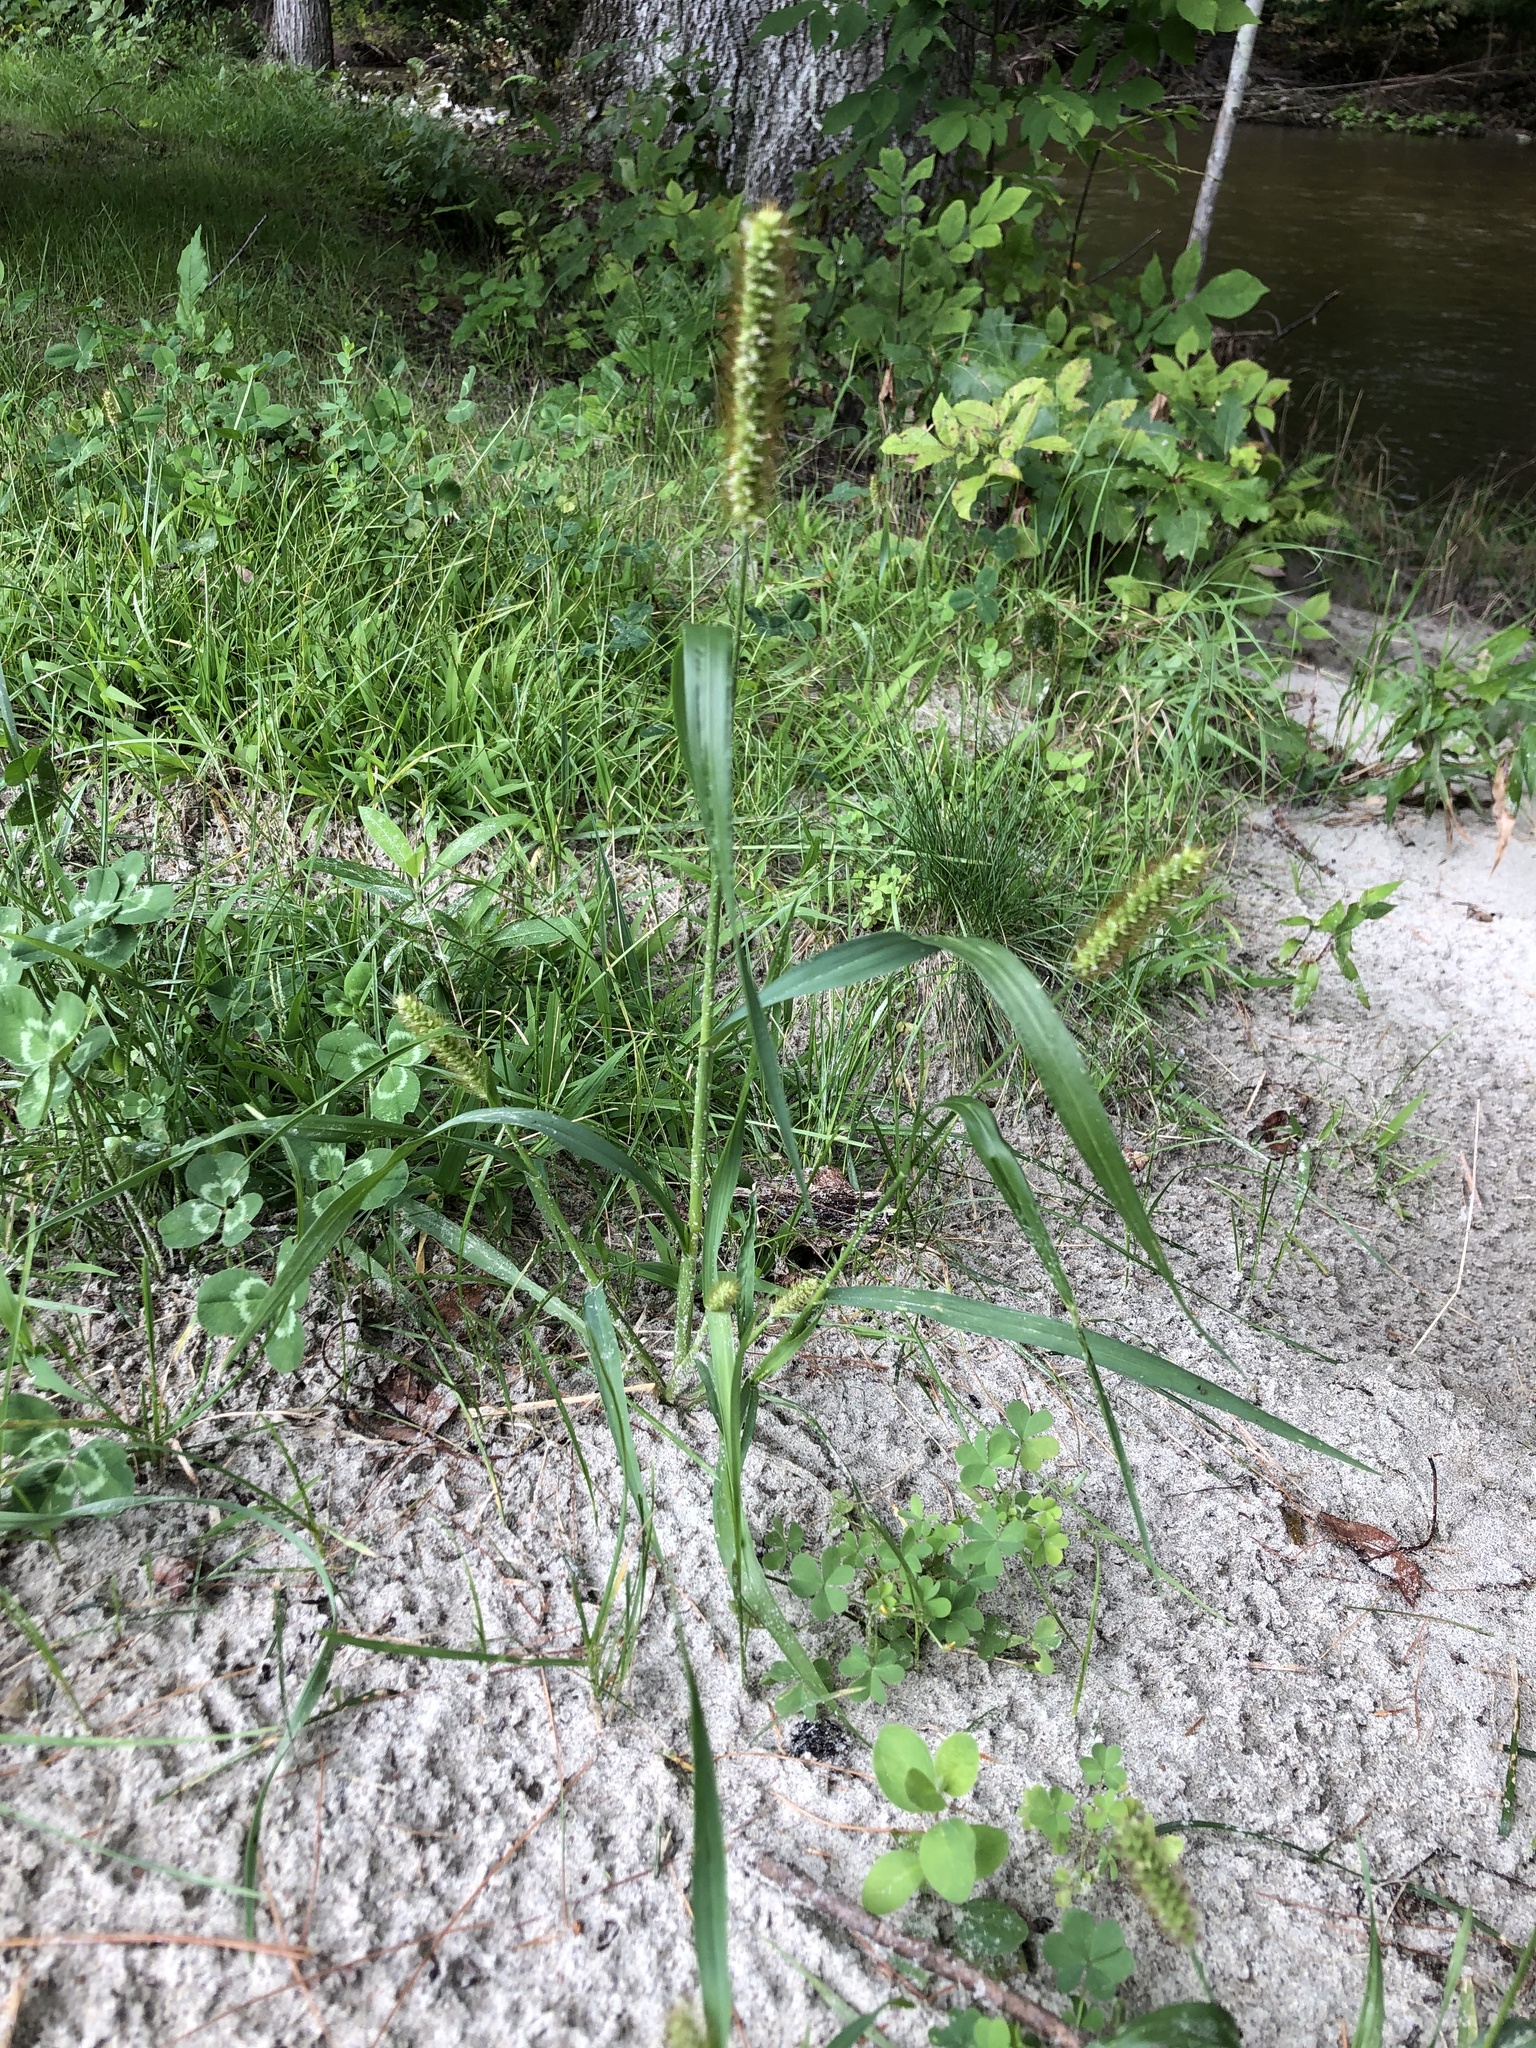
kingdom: Plantae
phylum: Tracheophyta
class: Liliopsida
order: Poales
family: Poaceae
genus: Setaria
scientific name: Setaria pumila
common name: Yellow bristle-grass
